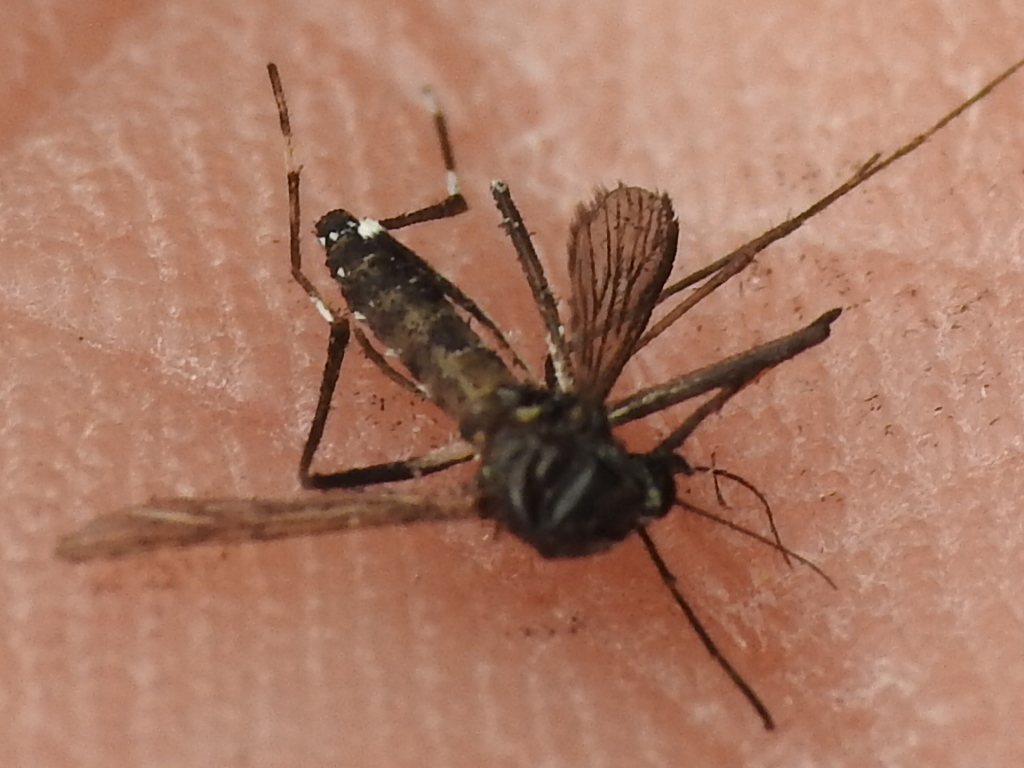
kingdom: Animalia
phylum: Arthropoda
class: Insecta
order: Diptera
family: Culicidae
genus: Aedes
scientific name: Aedes albopictus
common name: Tiger mosquito
